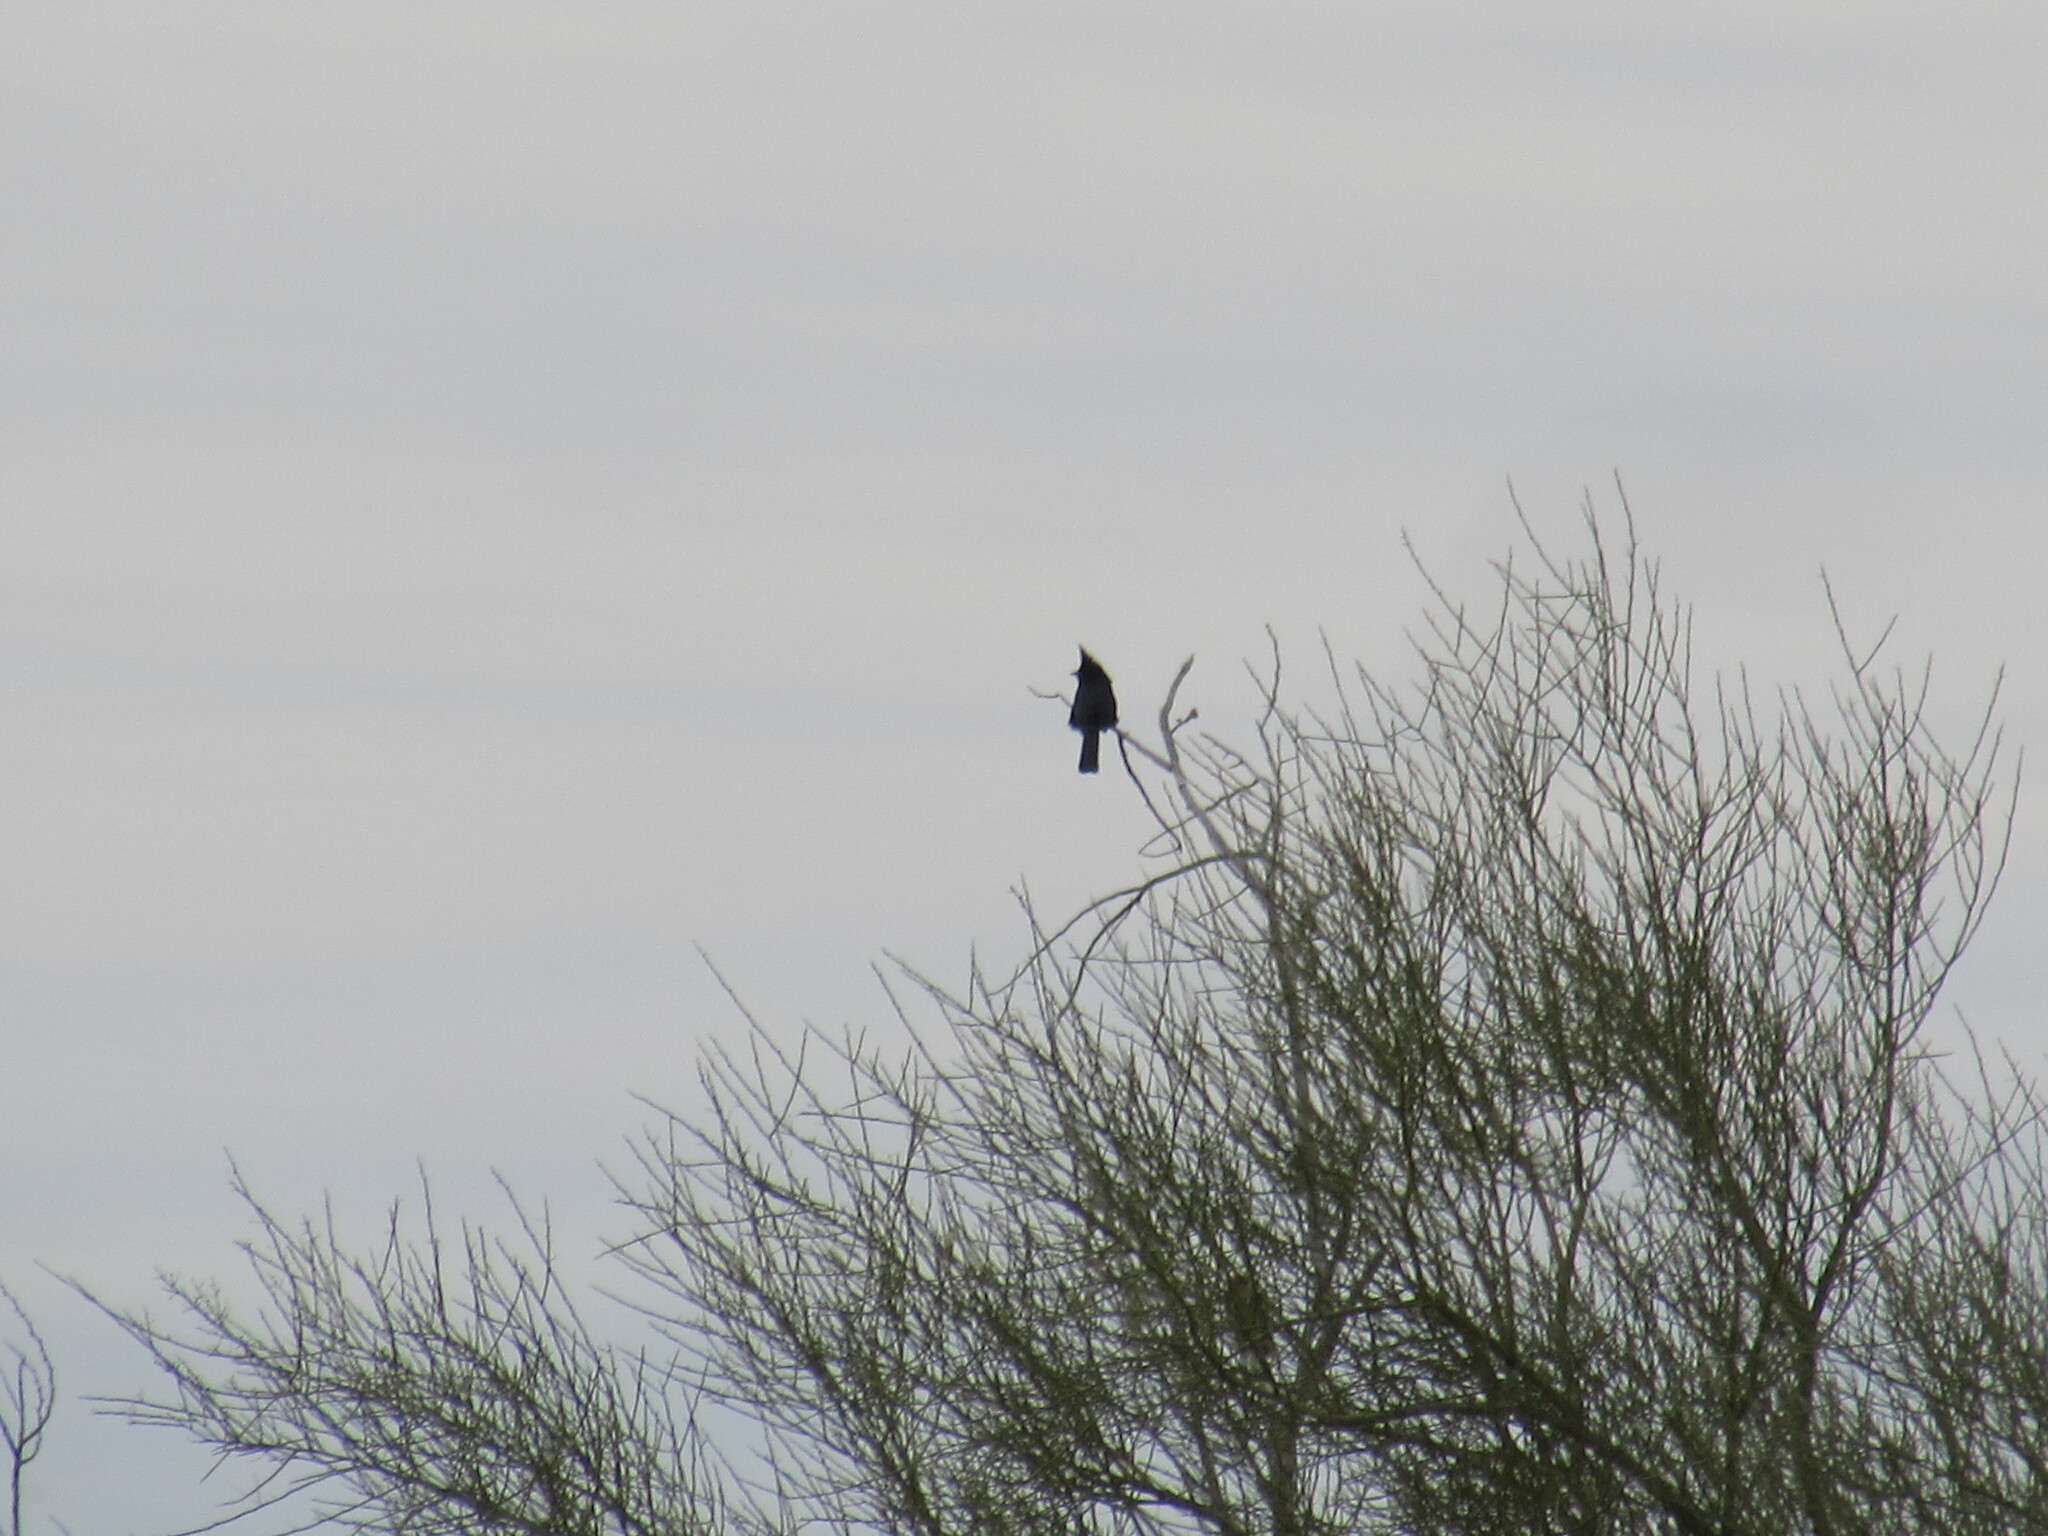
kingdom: Animalia
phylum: Chordata
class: Aves
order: Passeriformes
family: Ptilogonatidae
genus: Phainopepla
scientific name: Phainopepla nitens
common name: Phainopepla
